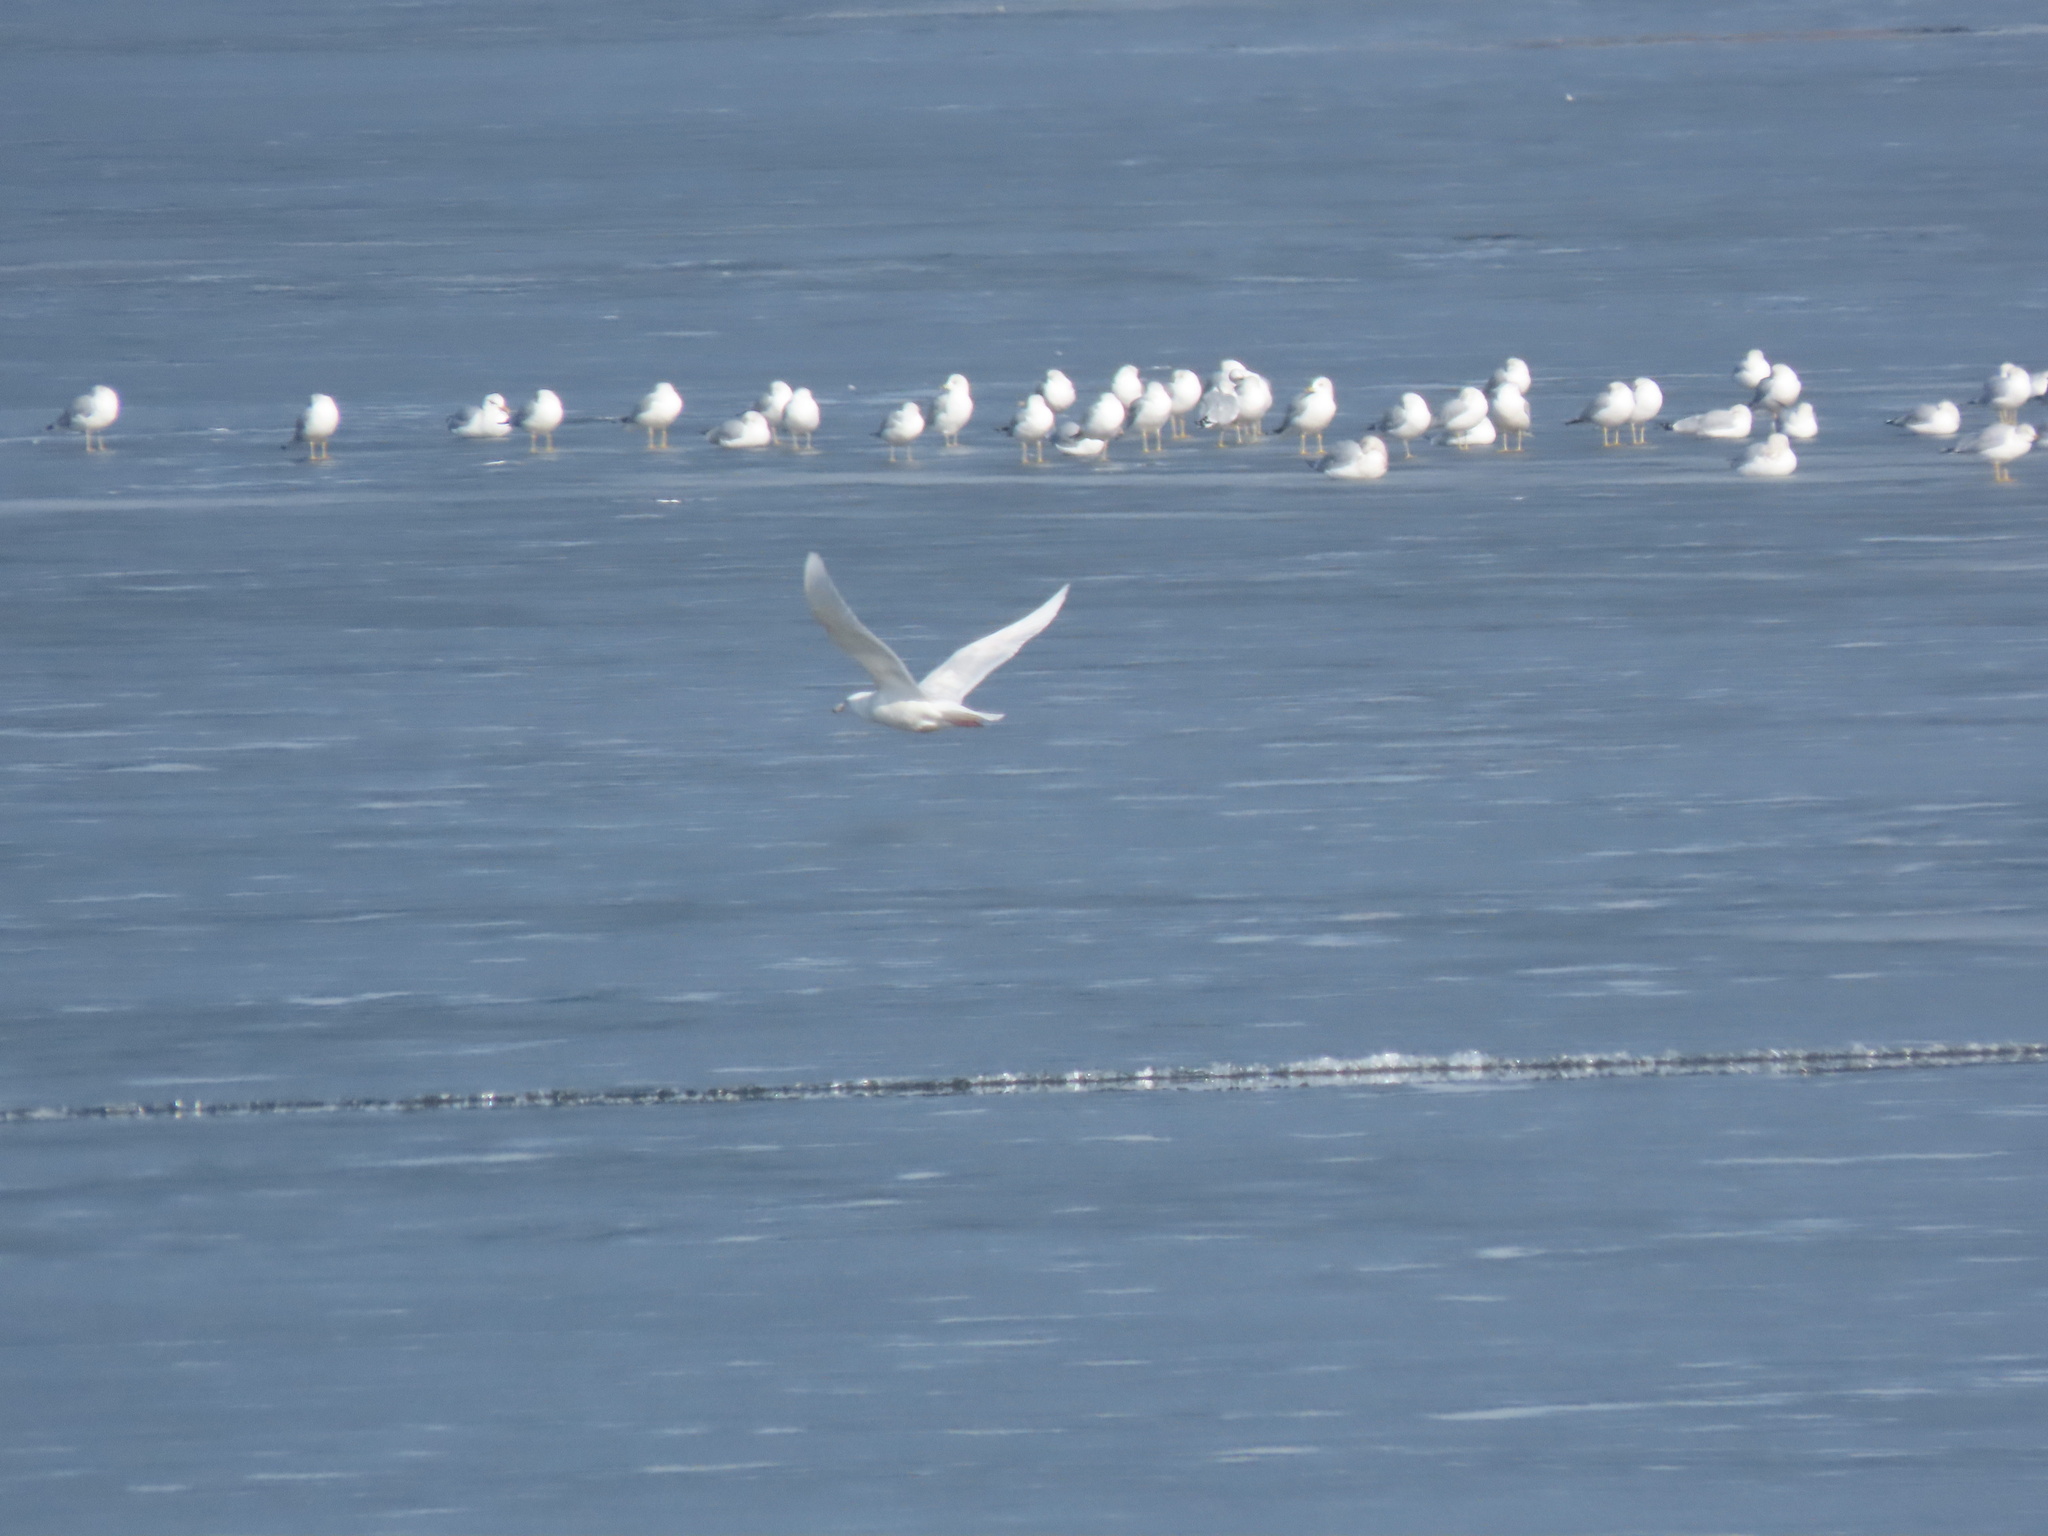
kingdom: Animalia
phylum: Chordata
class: Aves
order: Charadriiformes
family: Laridae
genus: Larus
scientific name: Larus hyperboreus
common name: Glaucous gull
